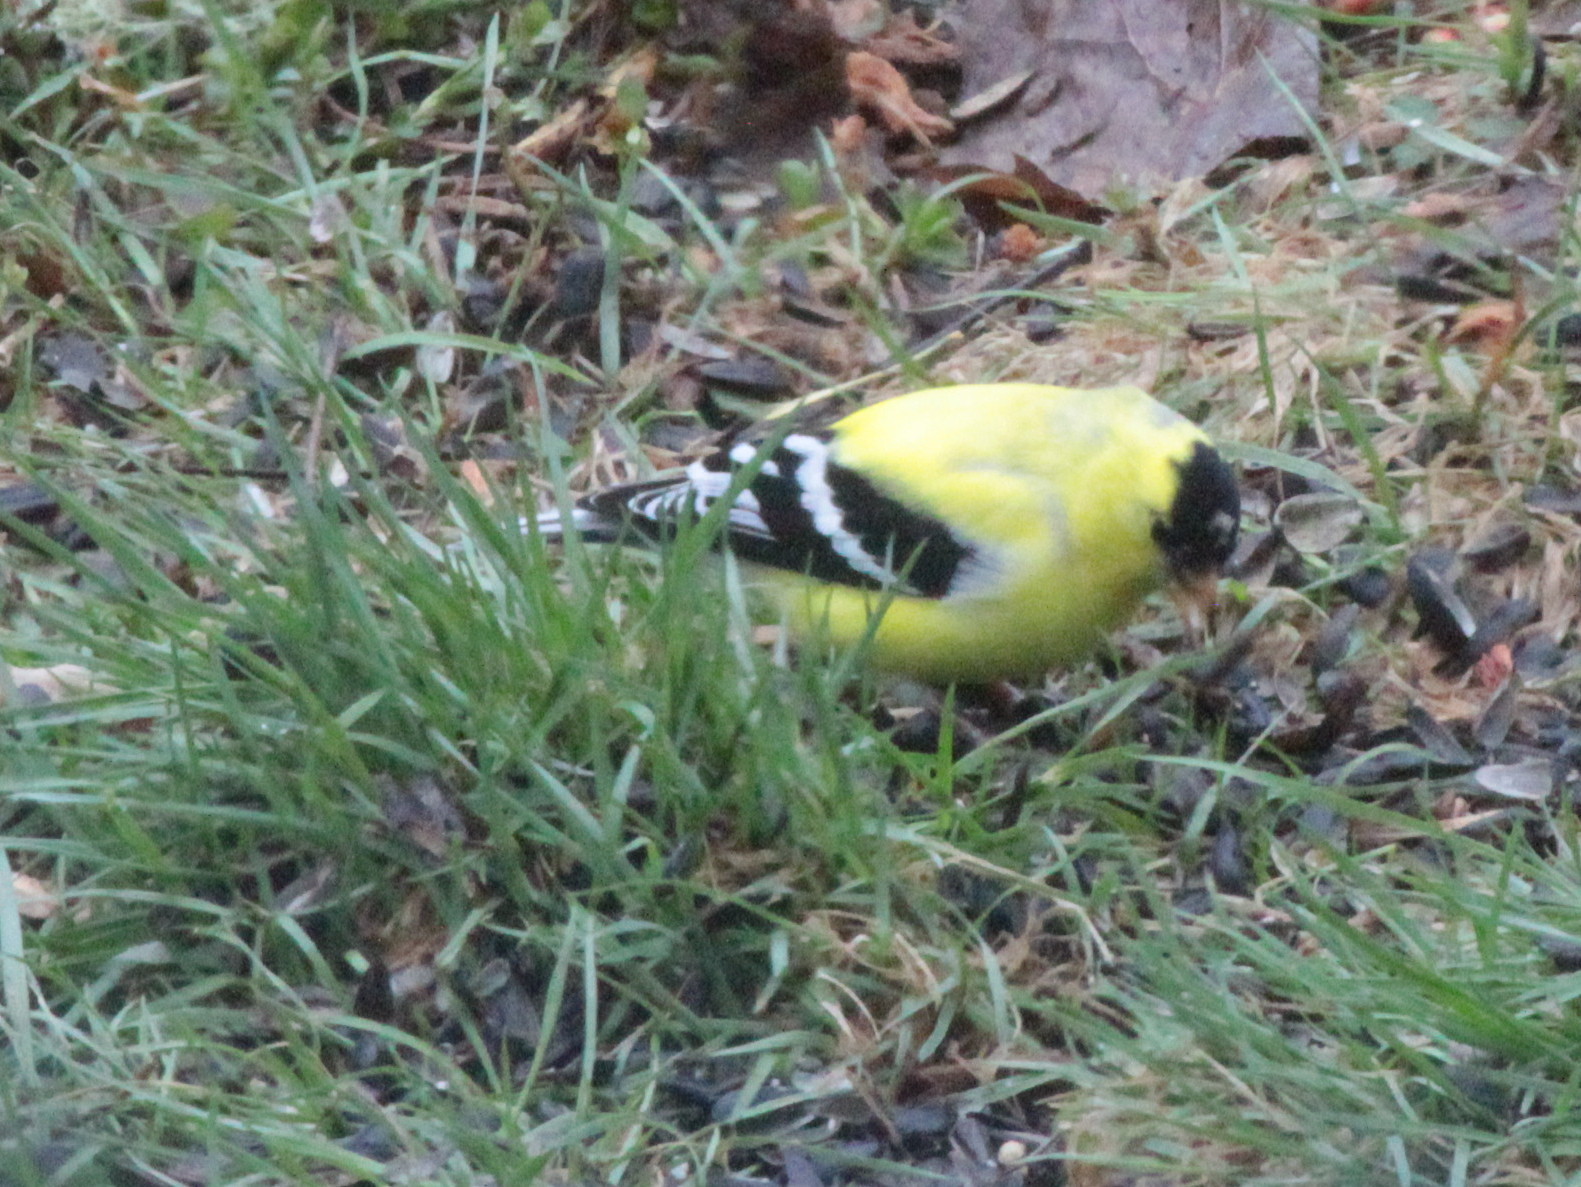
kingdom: Animalia
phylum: Chordata
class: Aves
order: Passeriformes
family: Fringillidae
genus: Spinus
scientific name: Spinus tristis
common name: American goldfinch
